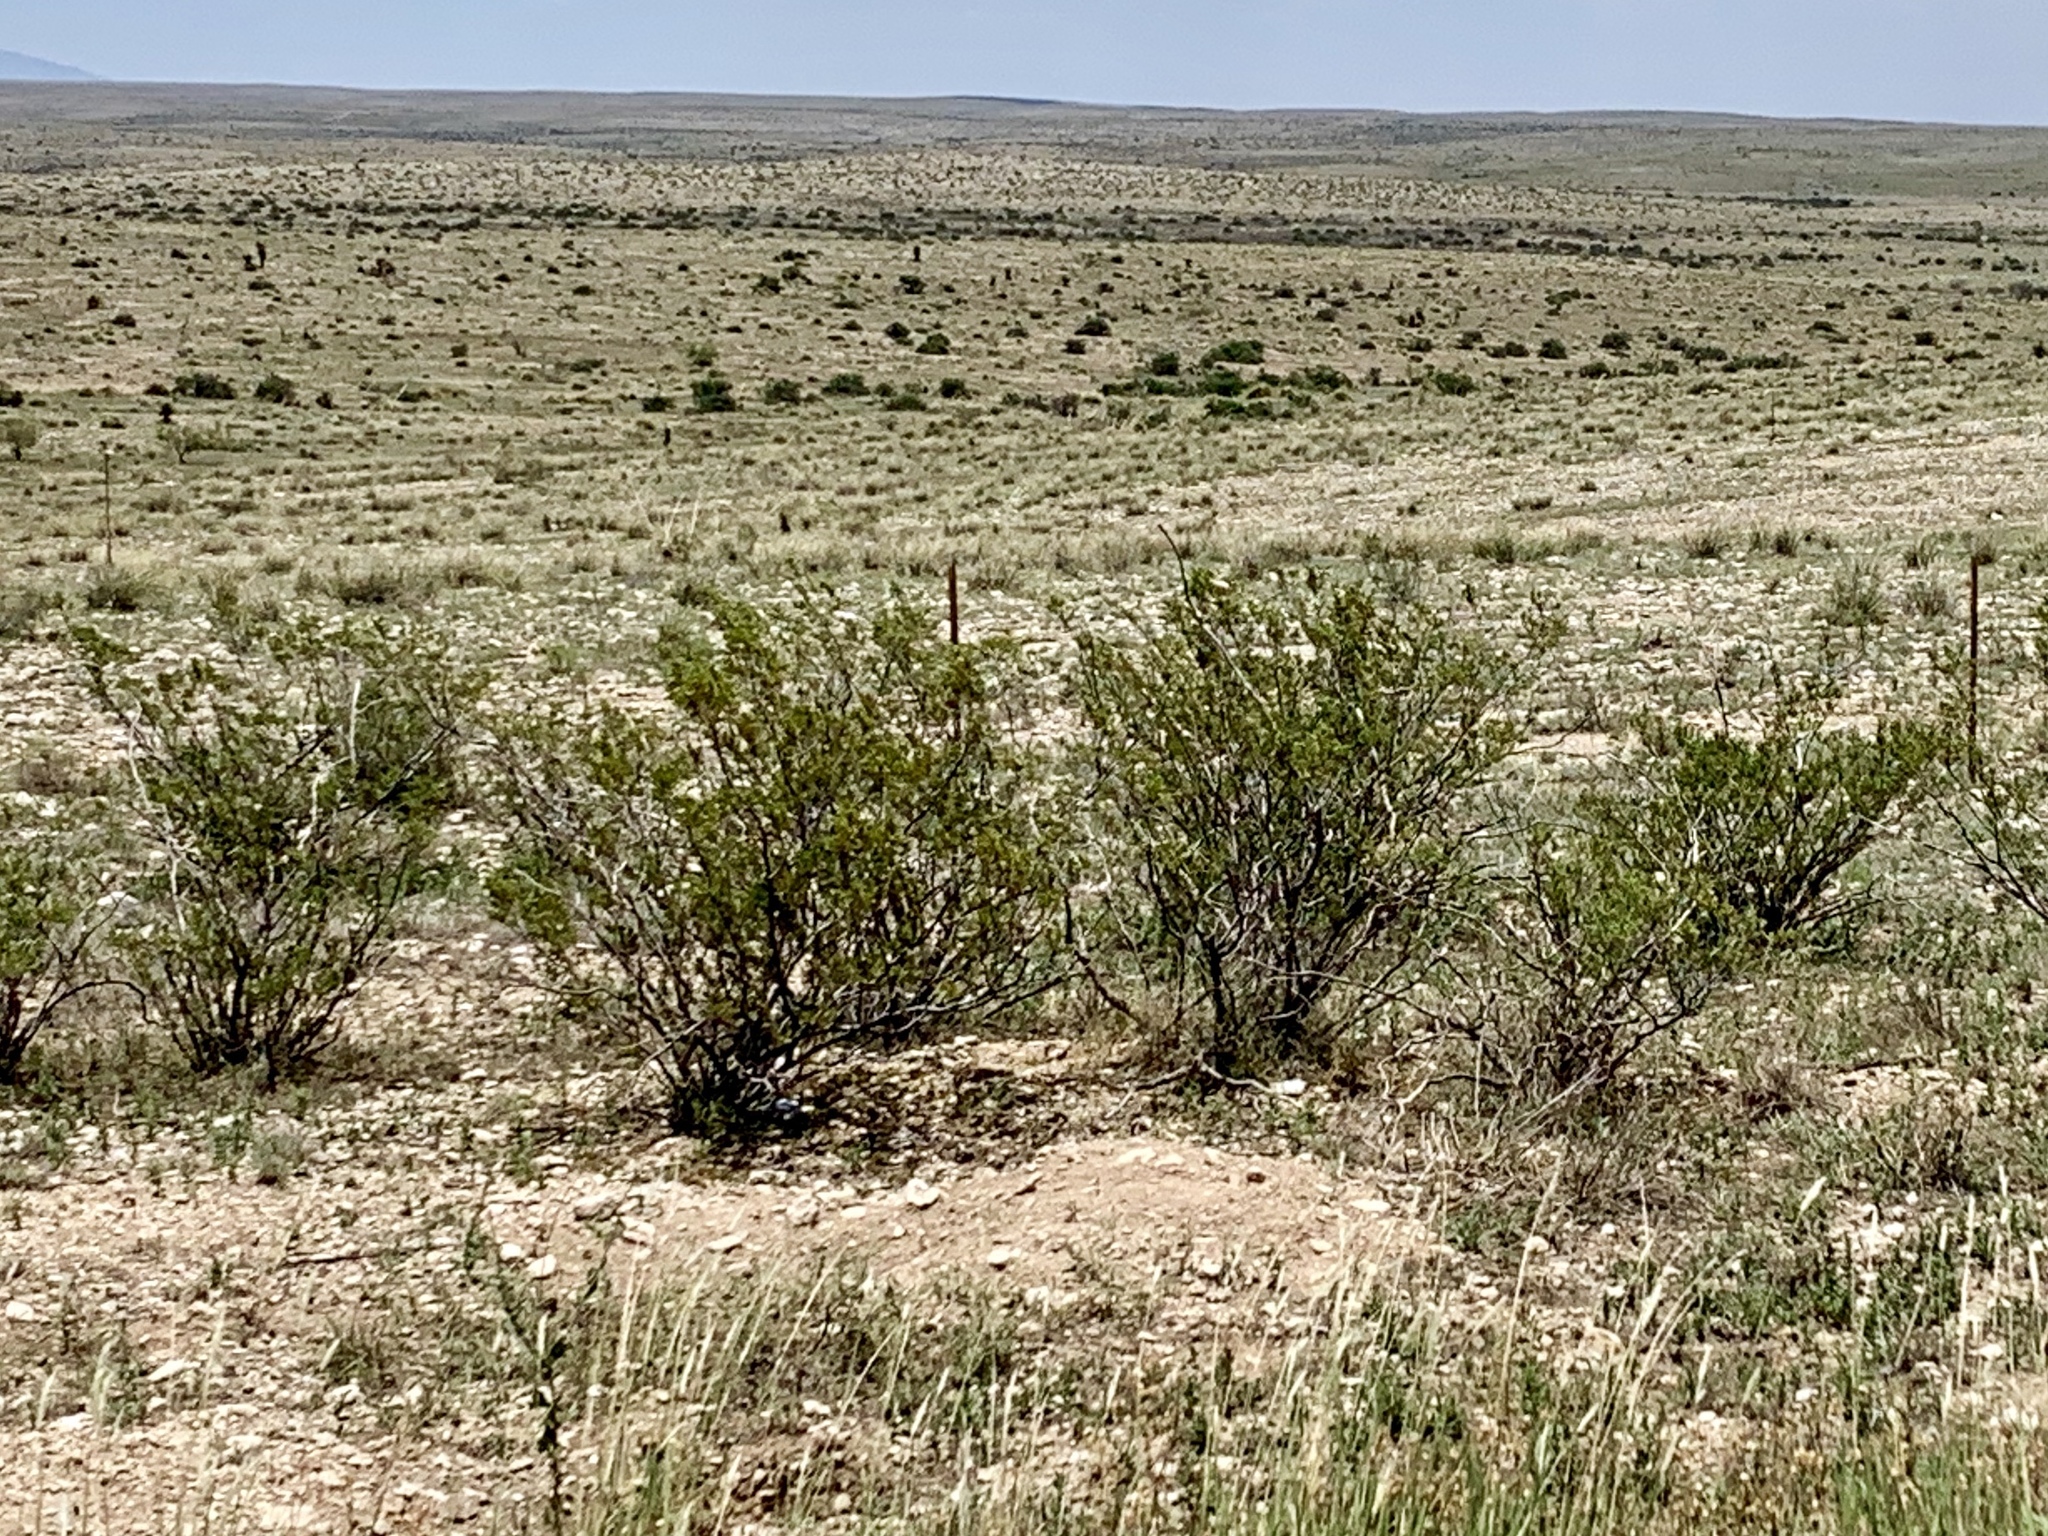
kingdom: Plantae
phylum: Tracheophyta
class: Magnoliopsida
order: Zygophyllales
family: Zygophyllaceae
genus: Larrea
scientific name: Larrea tridentata
